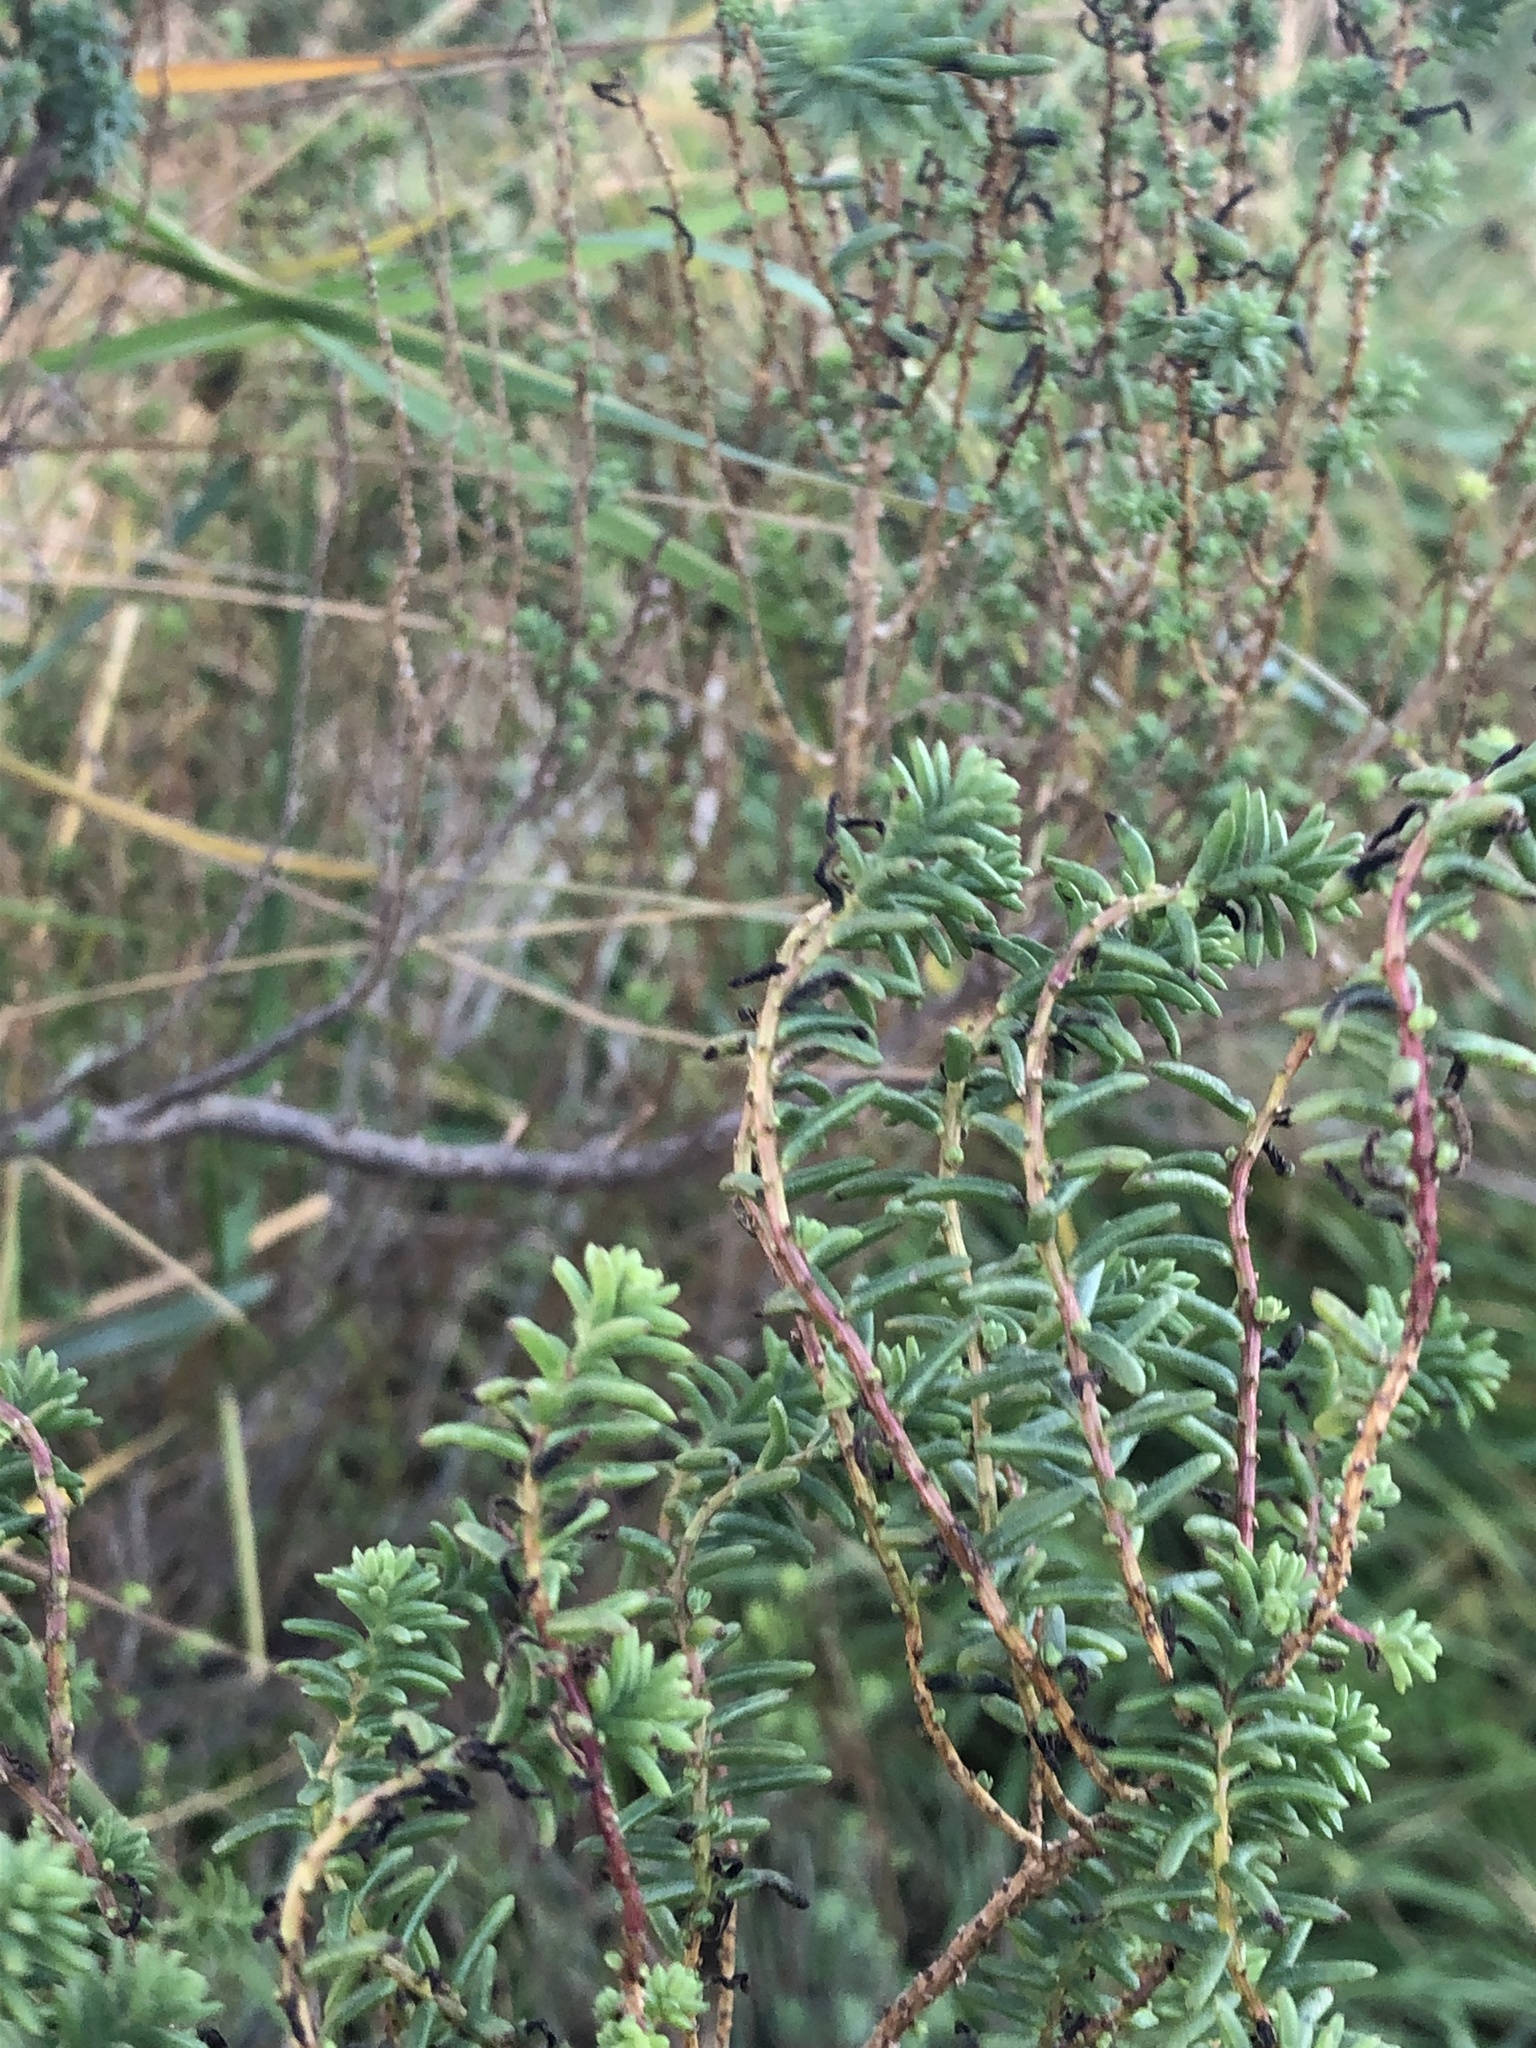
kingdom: Plantae
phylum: Tracheophyta
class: Magnoliopsida
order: Caryophyllales
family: Amaranthaceae
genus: Suaeda
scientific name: Suaeda vera
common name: Shrubby sea-blite
